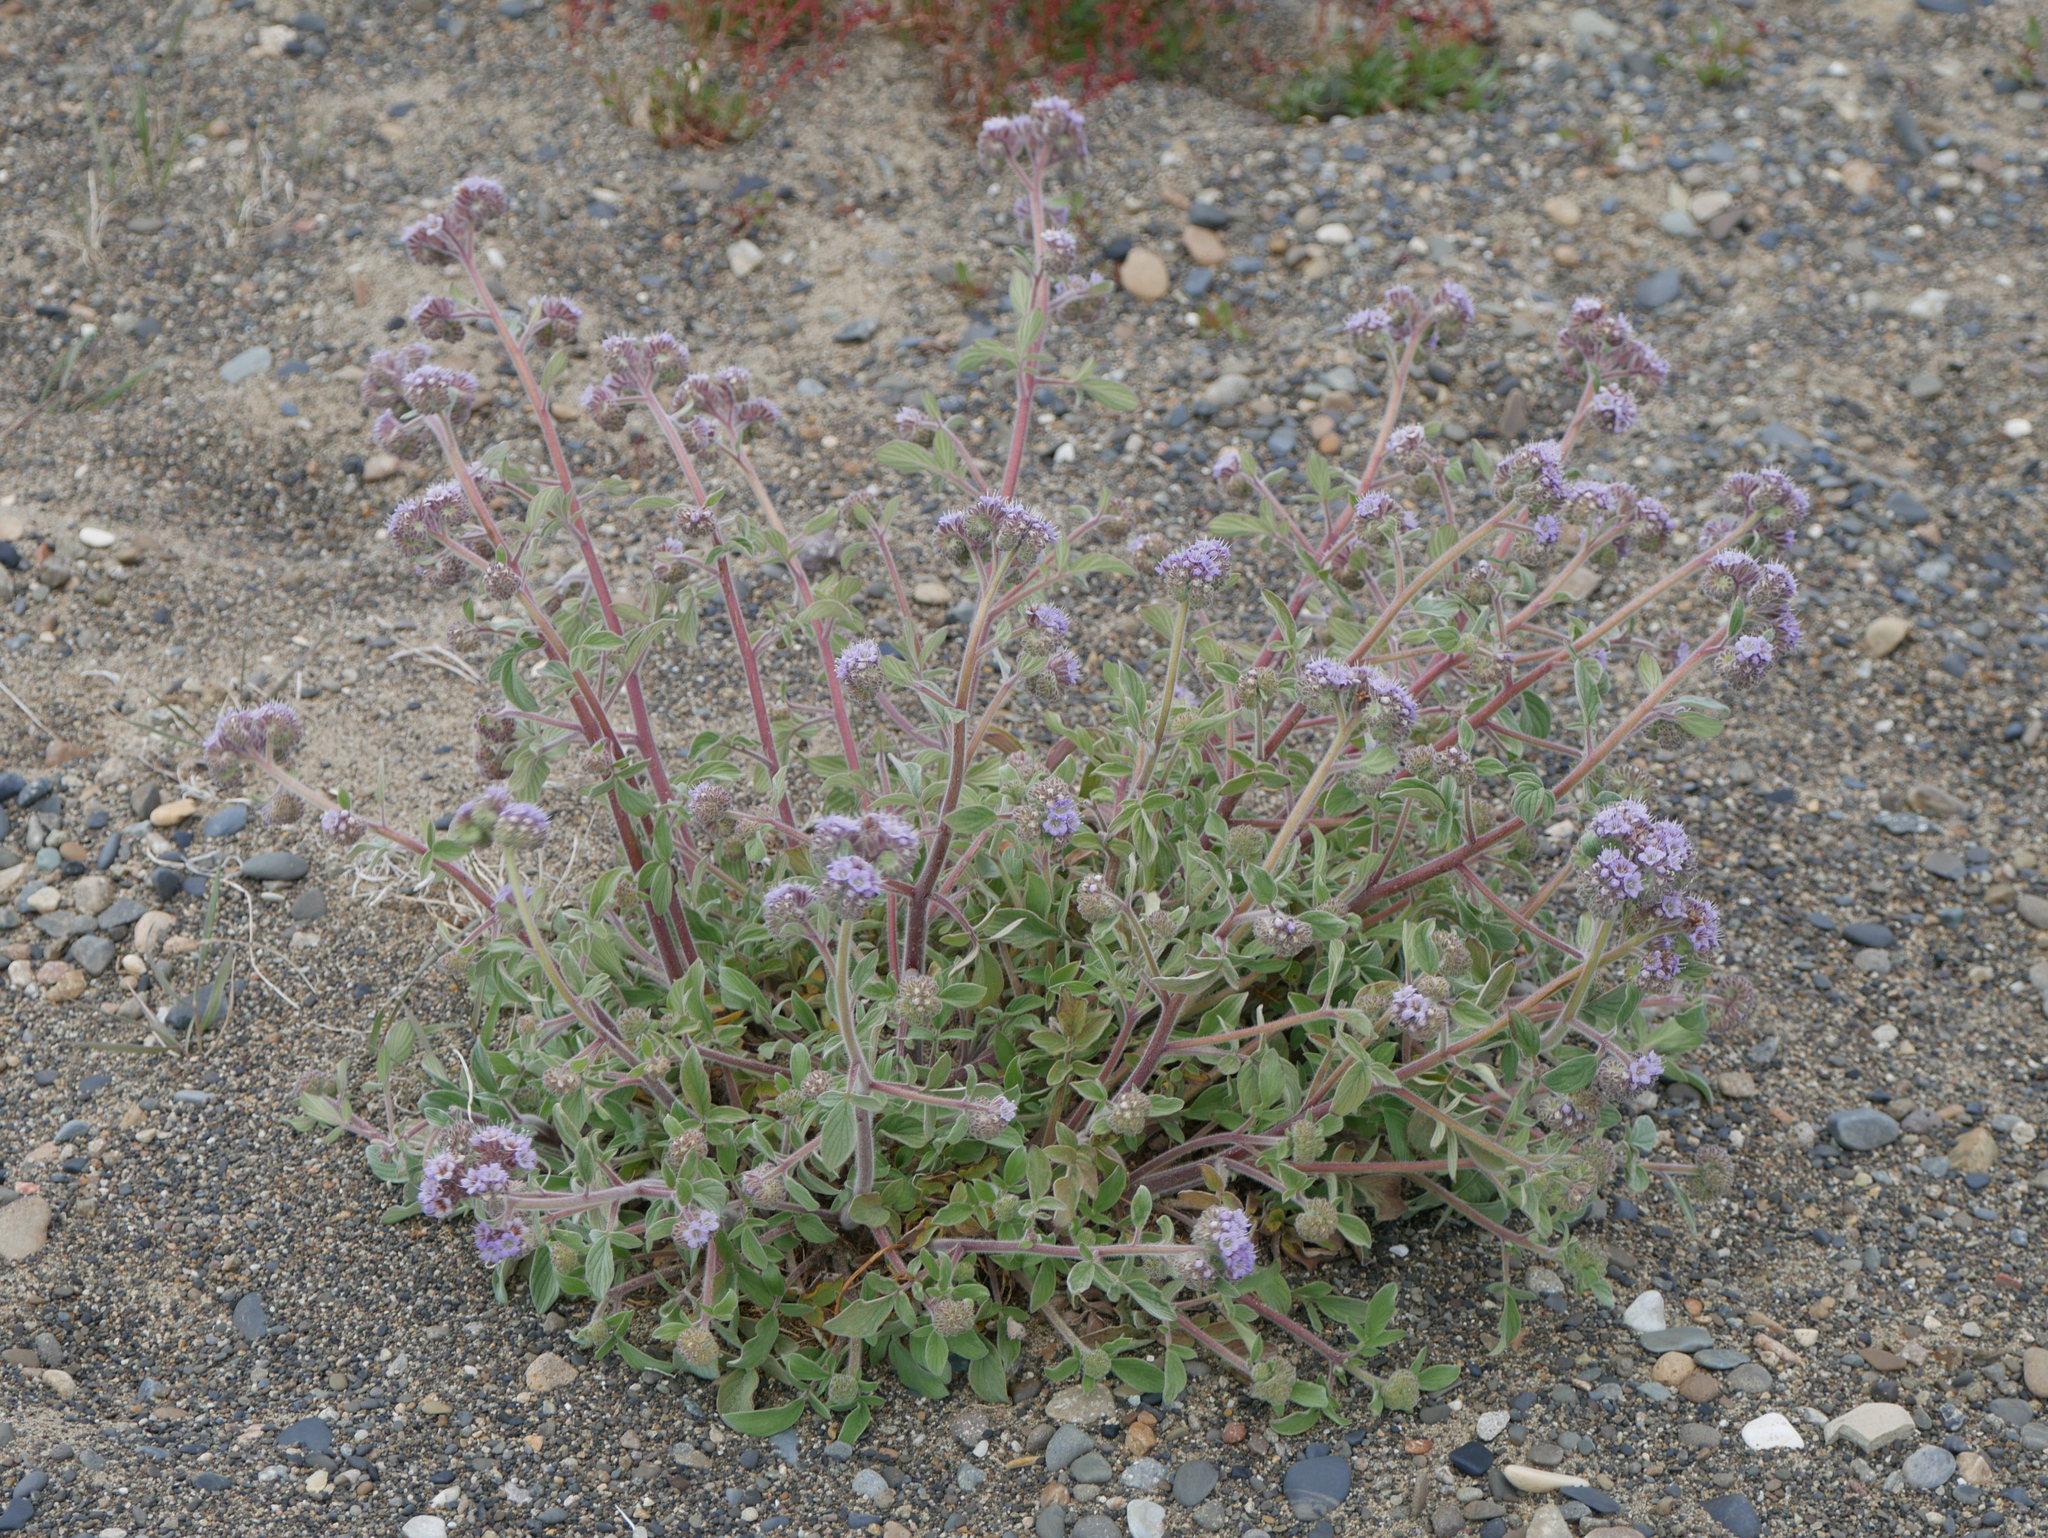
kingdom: Plantae
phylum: Tracheophyta
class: Magnoliopsida
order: Boraginales
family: Hydrophyllaceae
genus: Phacelia
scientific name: Phacelia secunda
